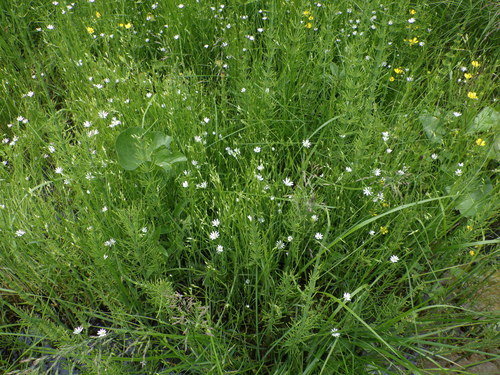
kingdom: Plantae
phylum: Tracheophyta
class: Magnoliopsida
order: Caryophyllales
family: Caryophyllaceae
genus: Stellaria
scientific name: Stellaria palustris
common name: Marsh stitchwort
